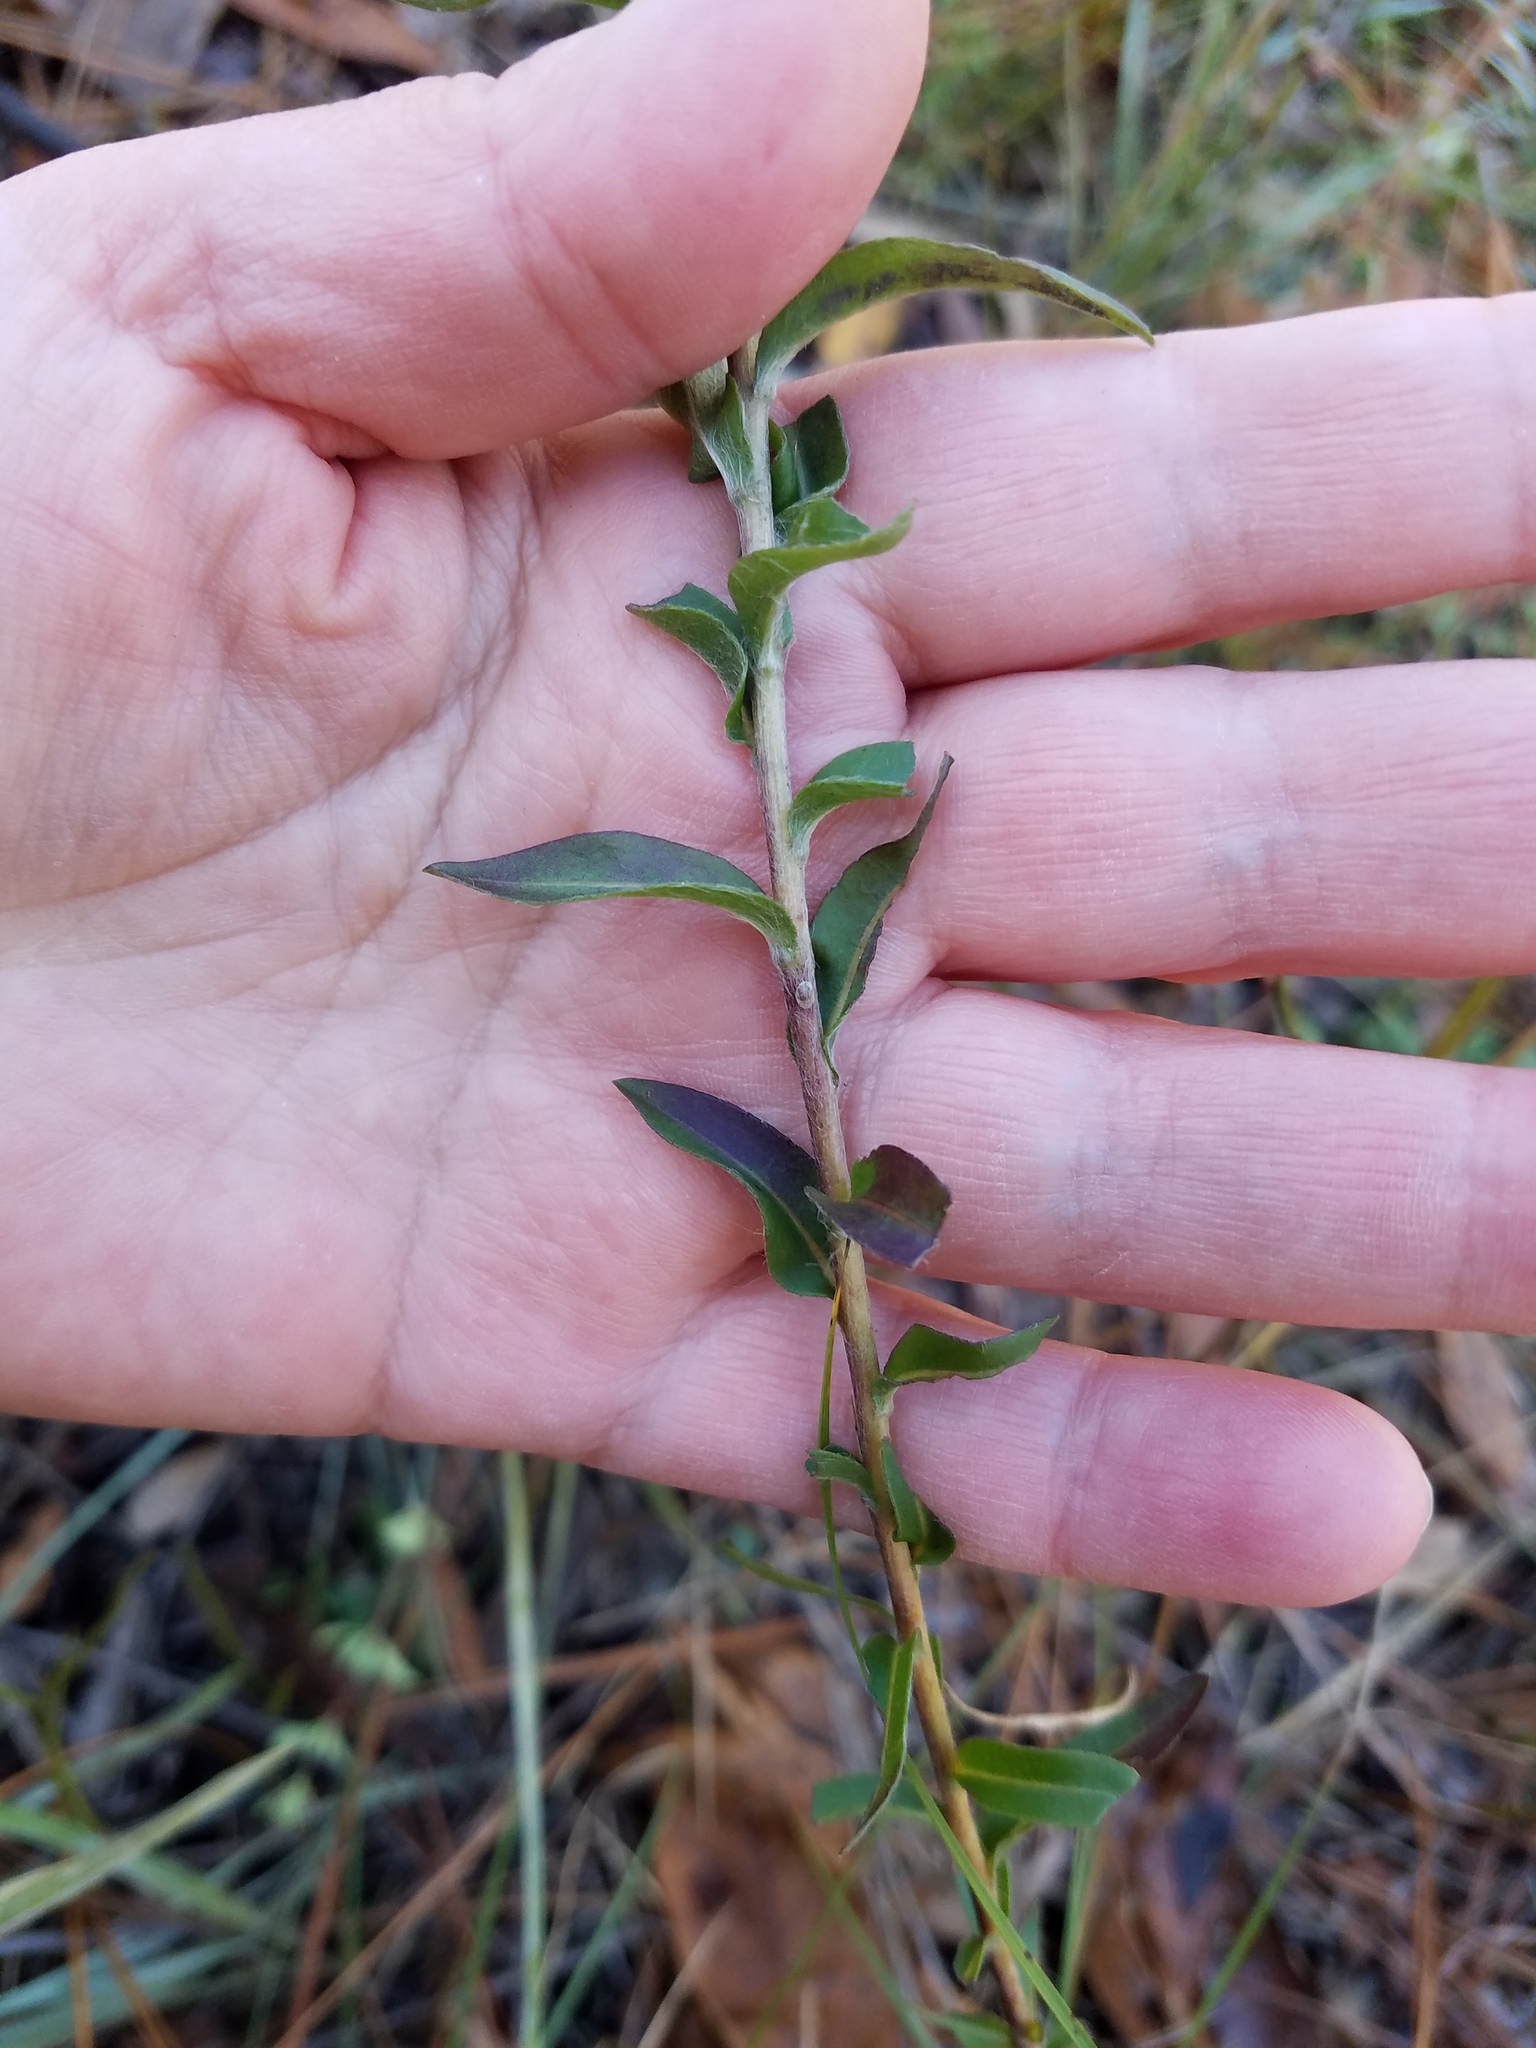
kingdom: Plantae
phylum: Tracheophyta
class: Magnoliopsida
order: Asterales
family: Asteraceae
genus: Chrysopsis
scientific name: Chrysopsis mariana
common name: Maryland golden-aster
